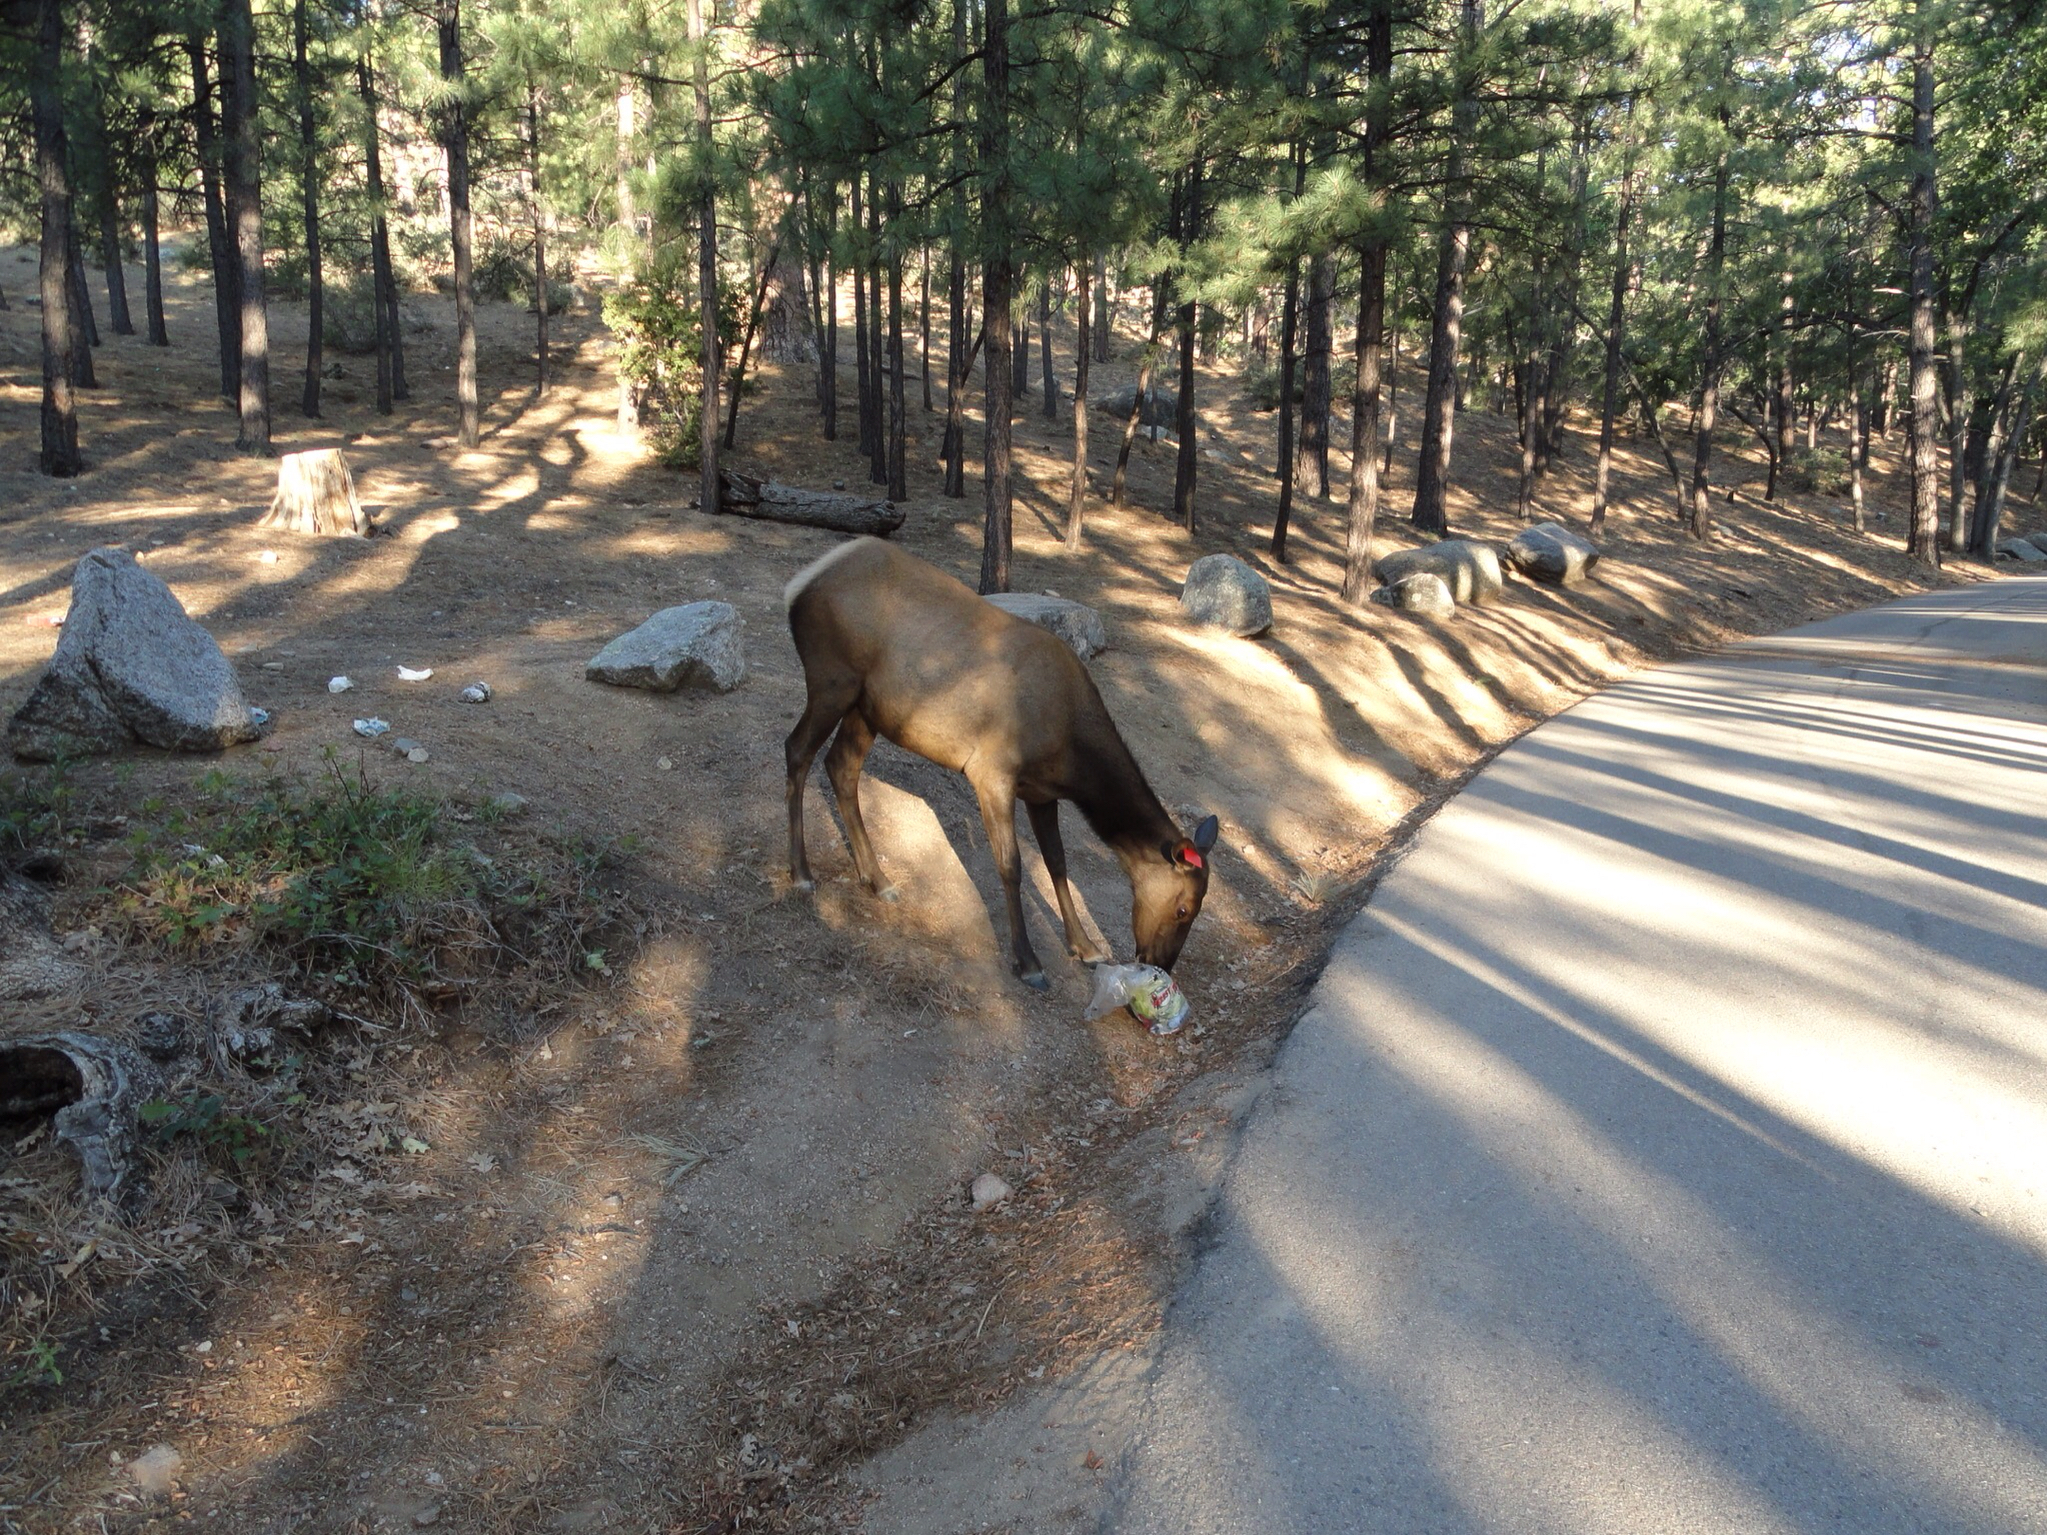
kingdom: Animalia
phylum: Chordata
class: Mammalia
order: Artiodactyla
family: Cervidae
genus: Cervus
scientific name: Cervus elaphus
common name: Red deer
